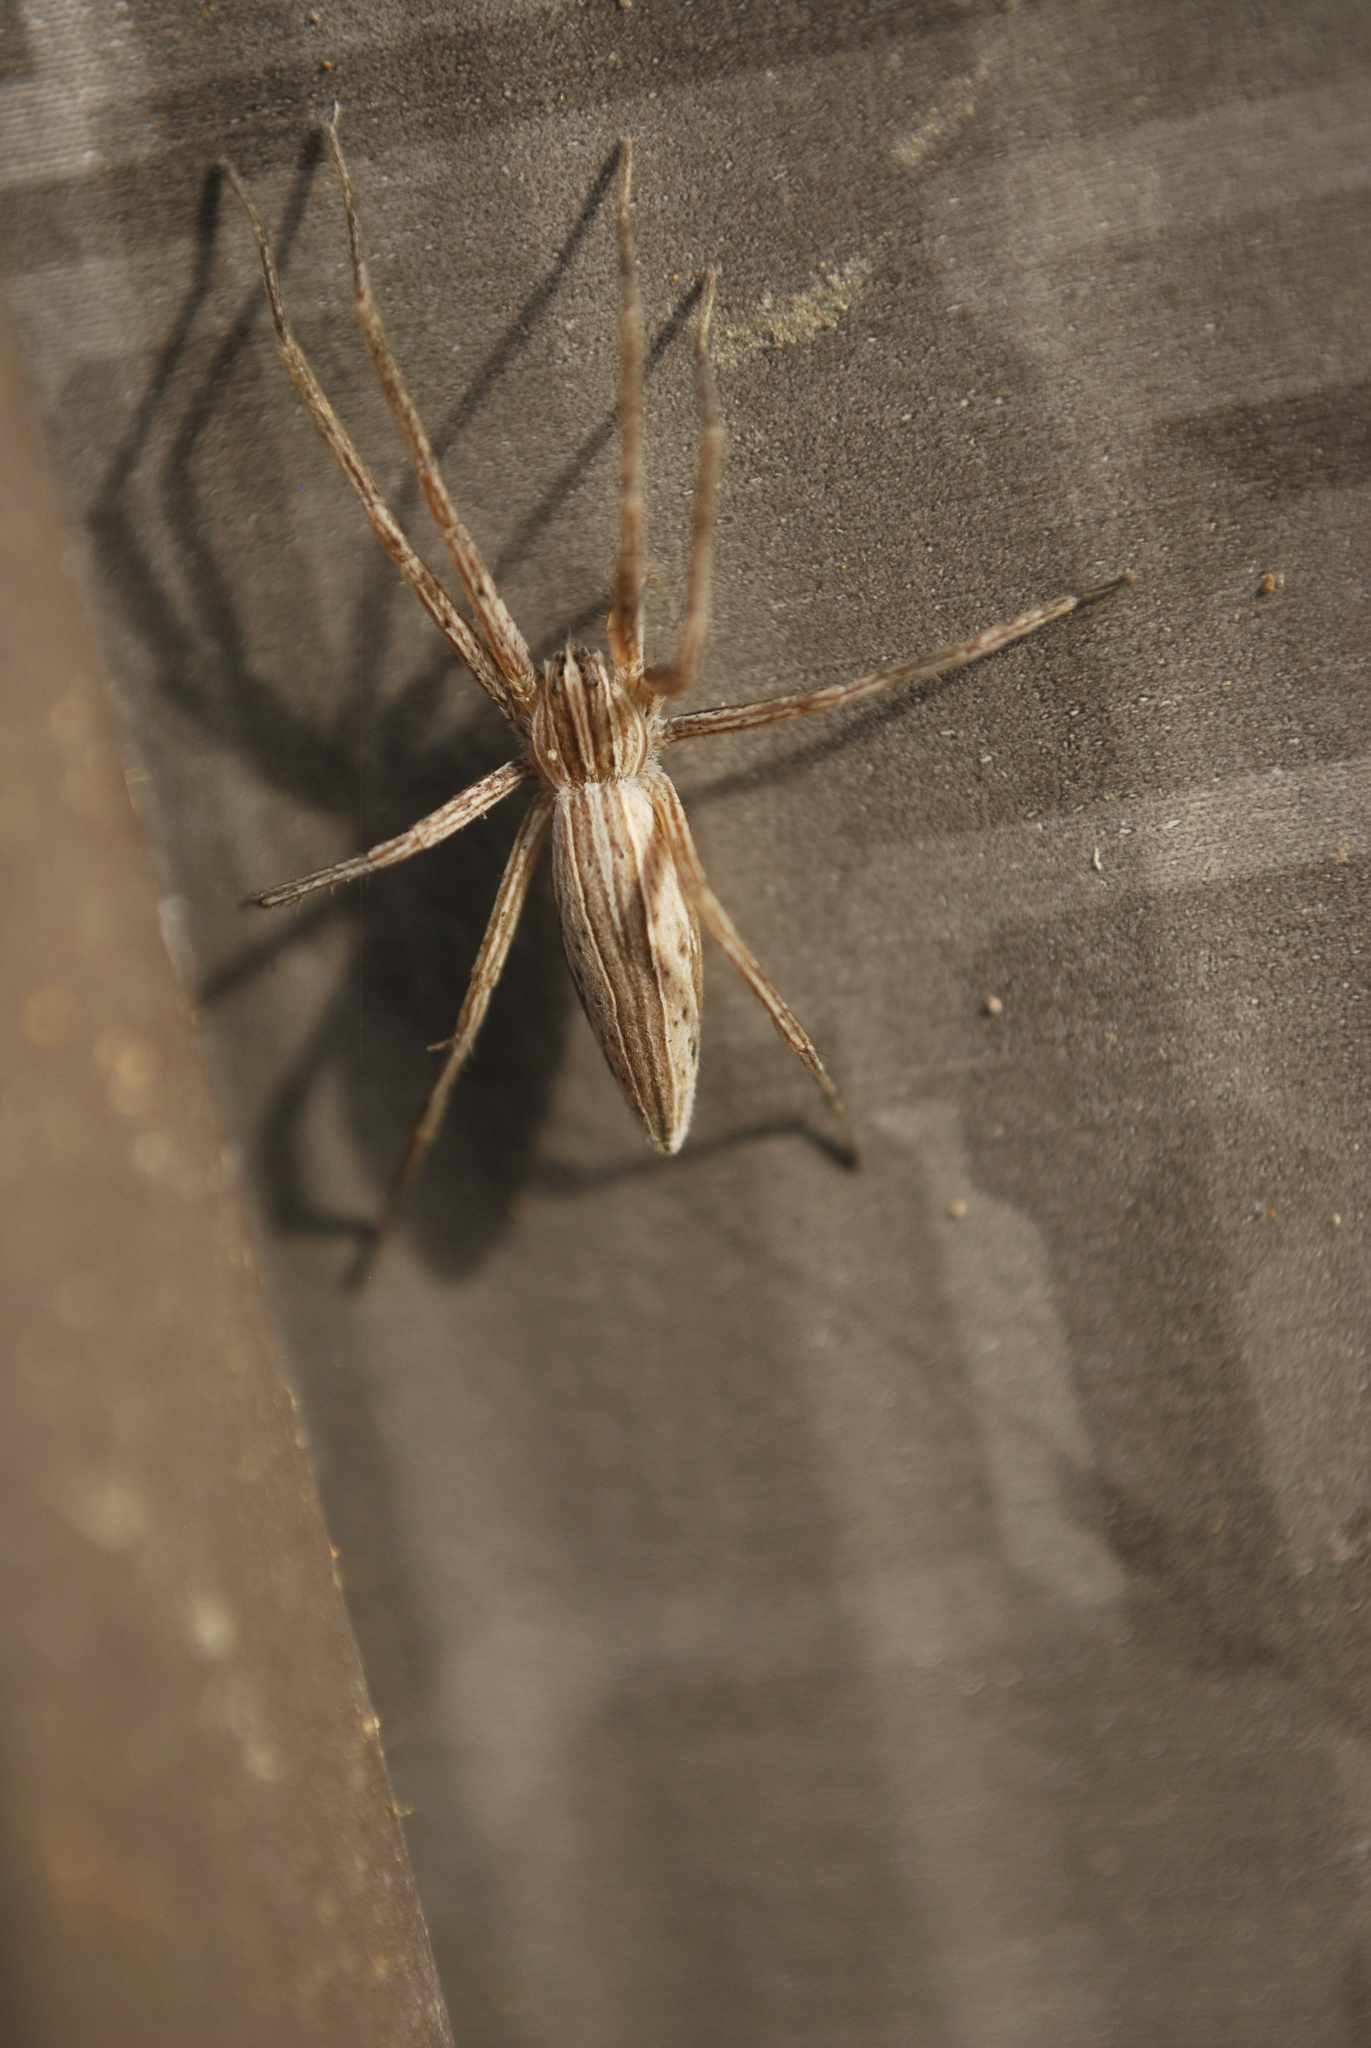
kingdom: Animalia
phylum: Arthropoda
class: Arachnida
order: Araneae
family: Pisauridae
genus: Pisaurina
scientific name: Pisaurina dubia
